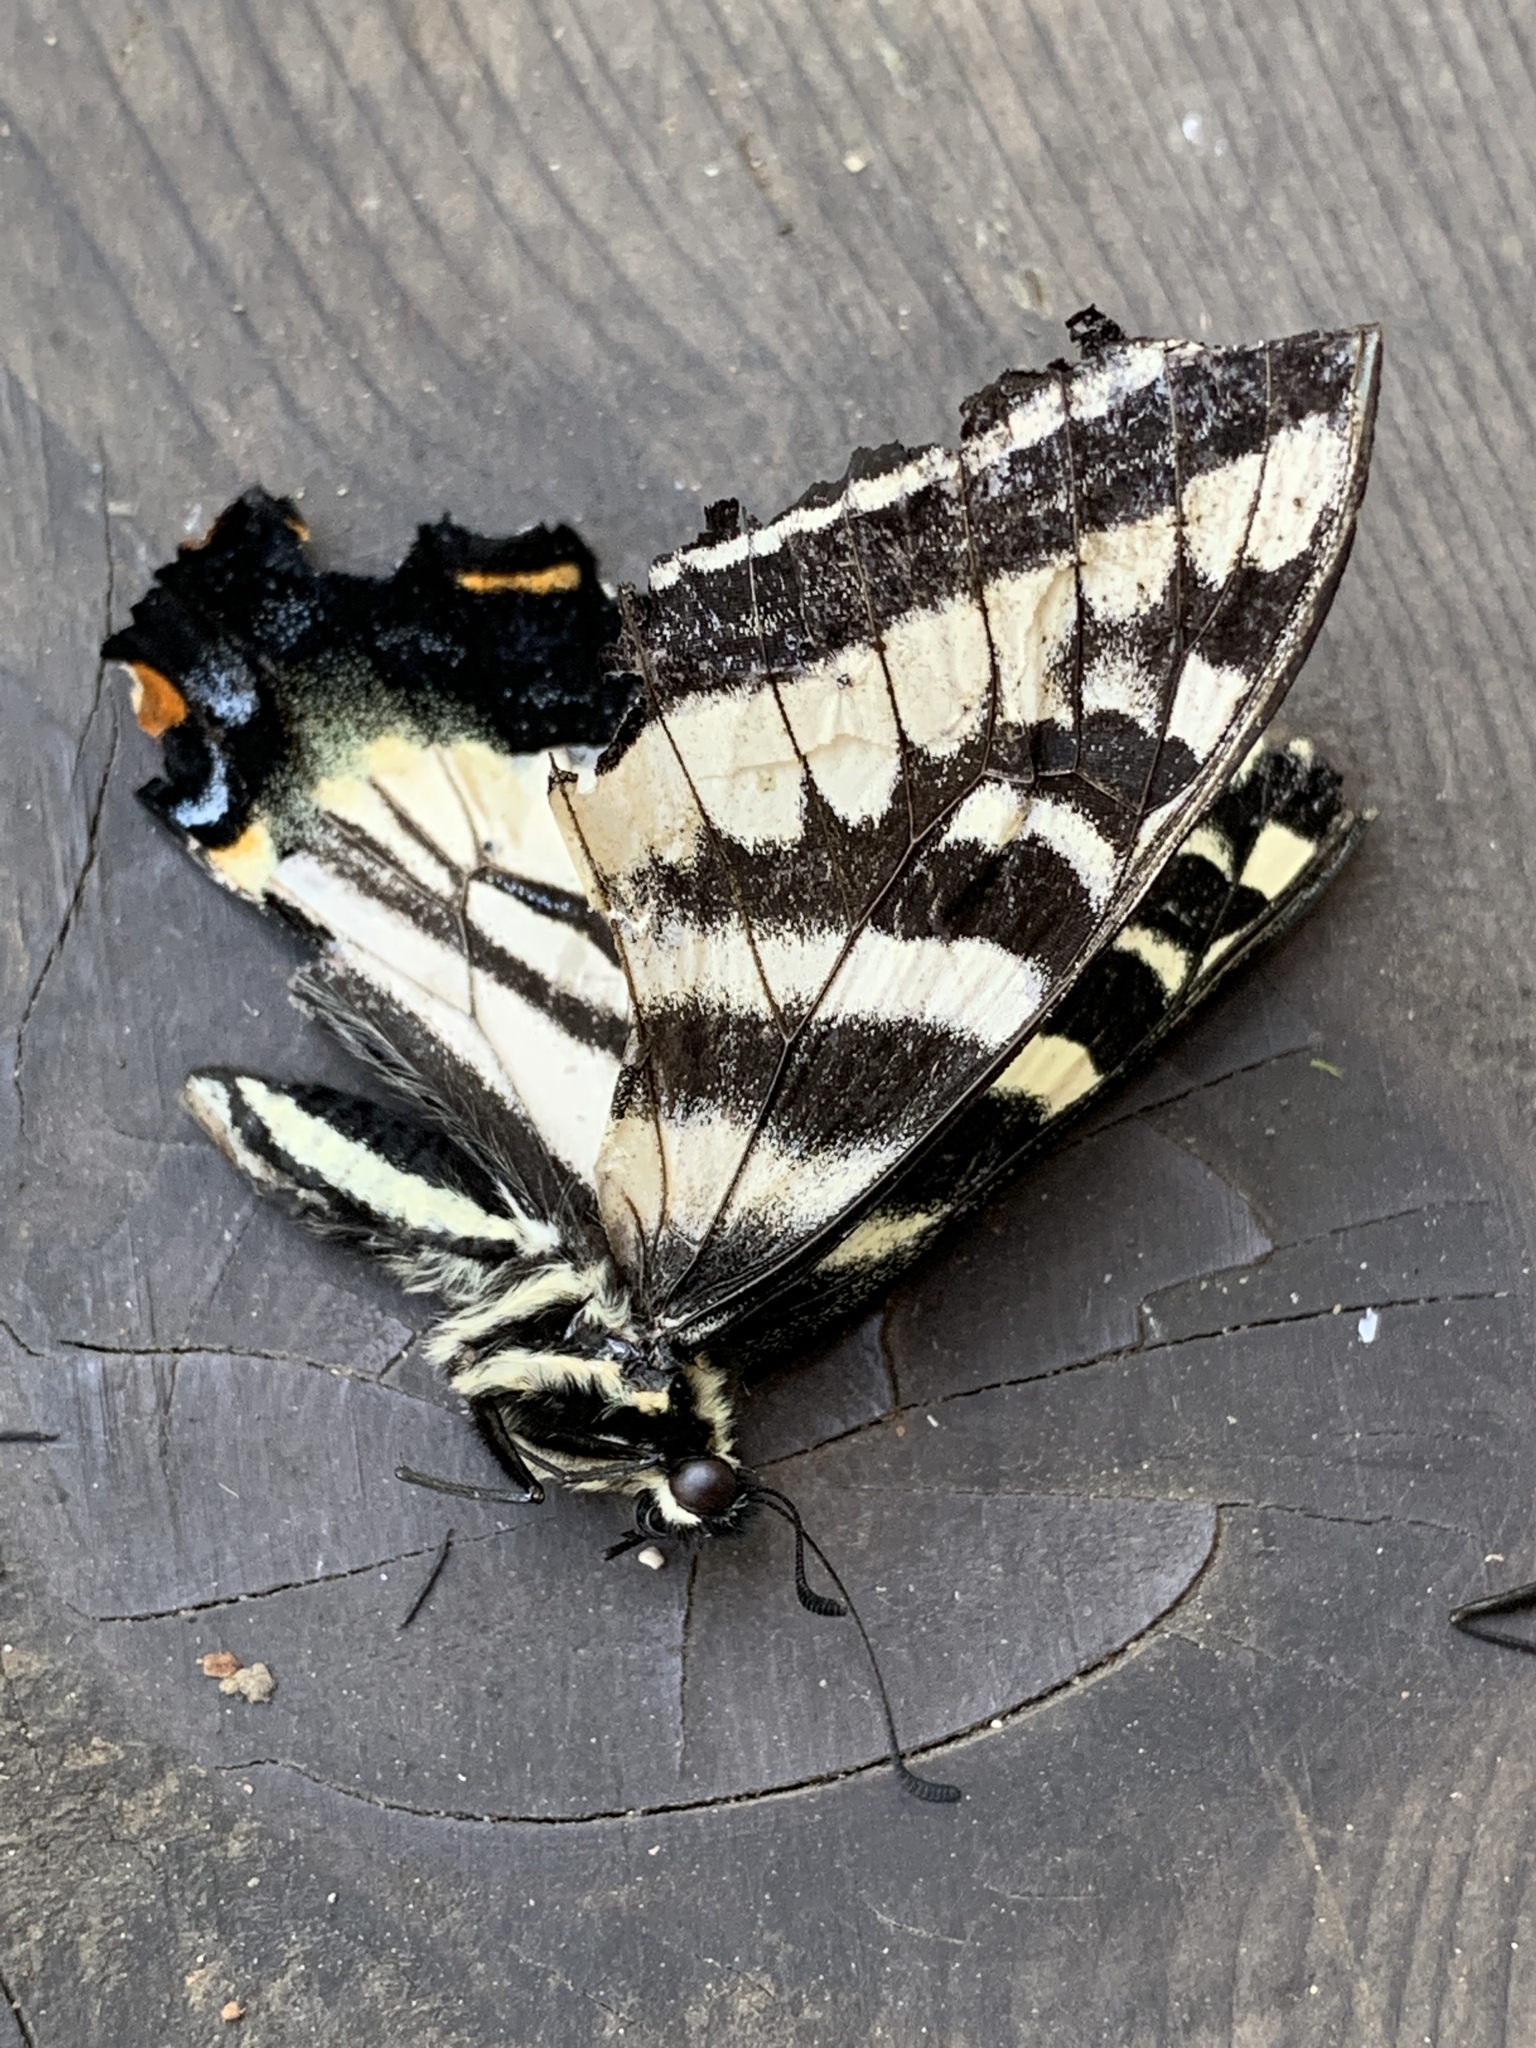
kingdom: Animalia
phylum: Arthropoda
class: Insecta
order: Lepidoptera
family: Papilionidae
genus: Papilio
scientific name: Papilio eurymedon
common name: Pale tiger swallowtail
